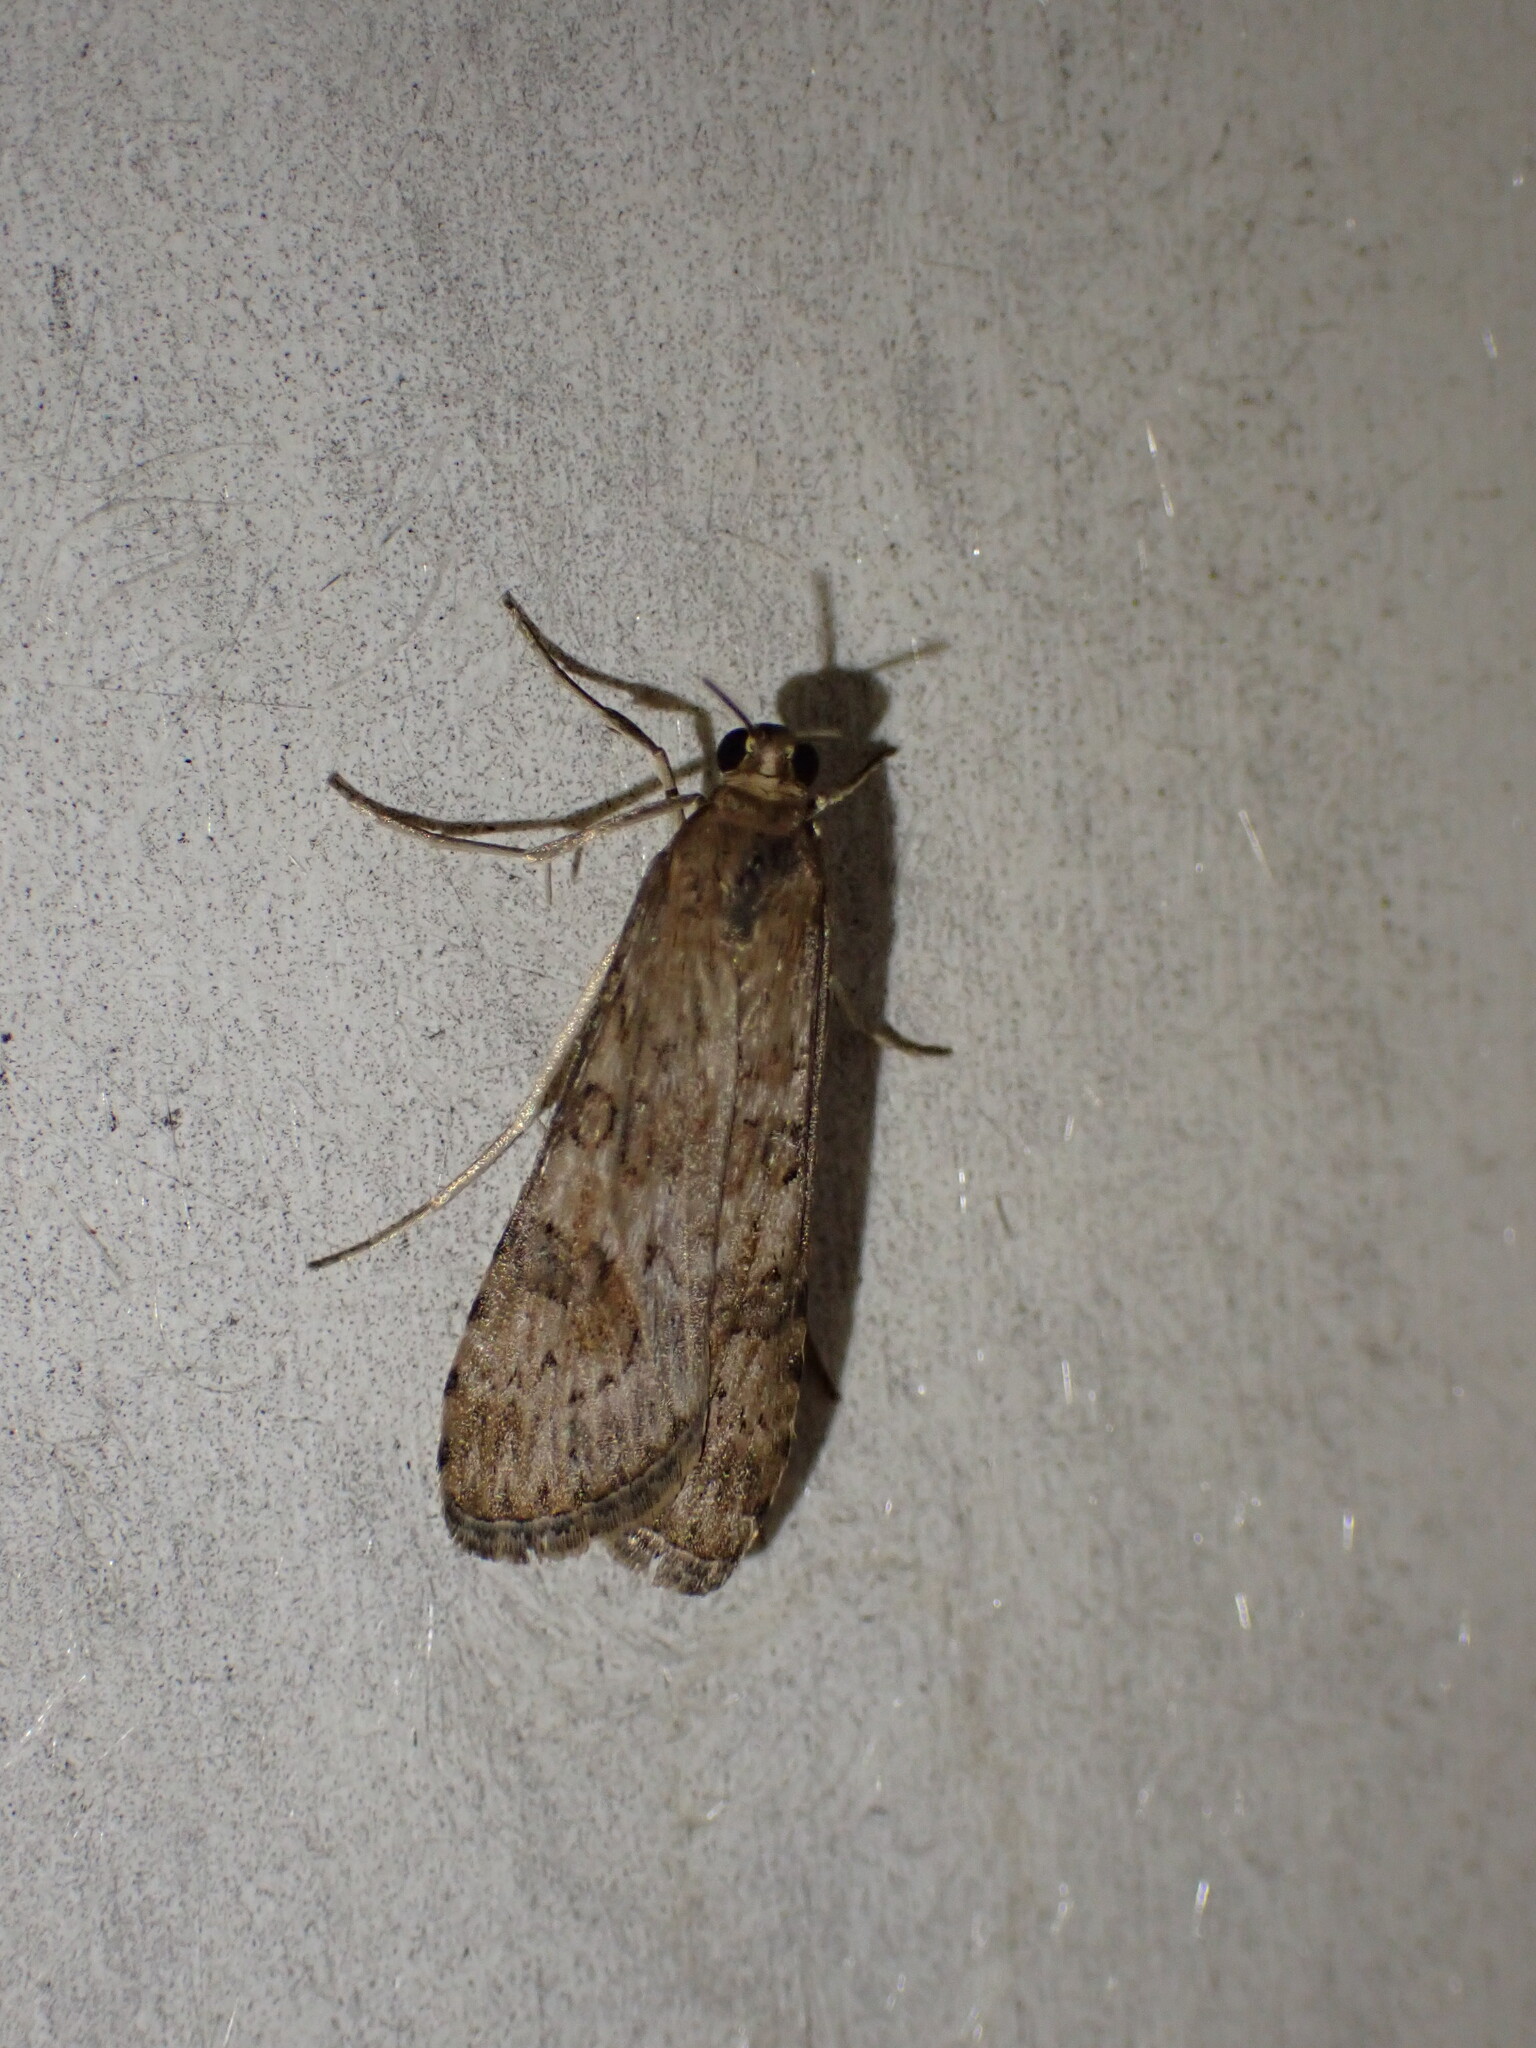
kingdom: Animalia
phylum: Arthropoda
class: Insecta
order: Lepidoptera
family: Crambidae
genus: Nomophila
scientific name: Nomophila nearctica
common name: American rush veneer
